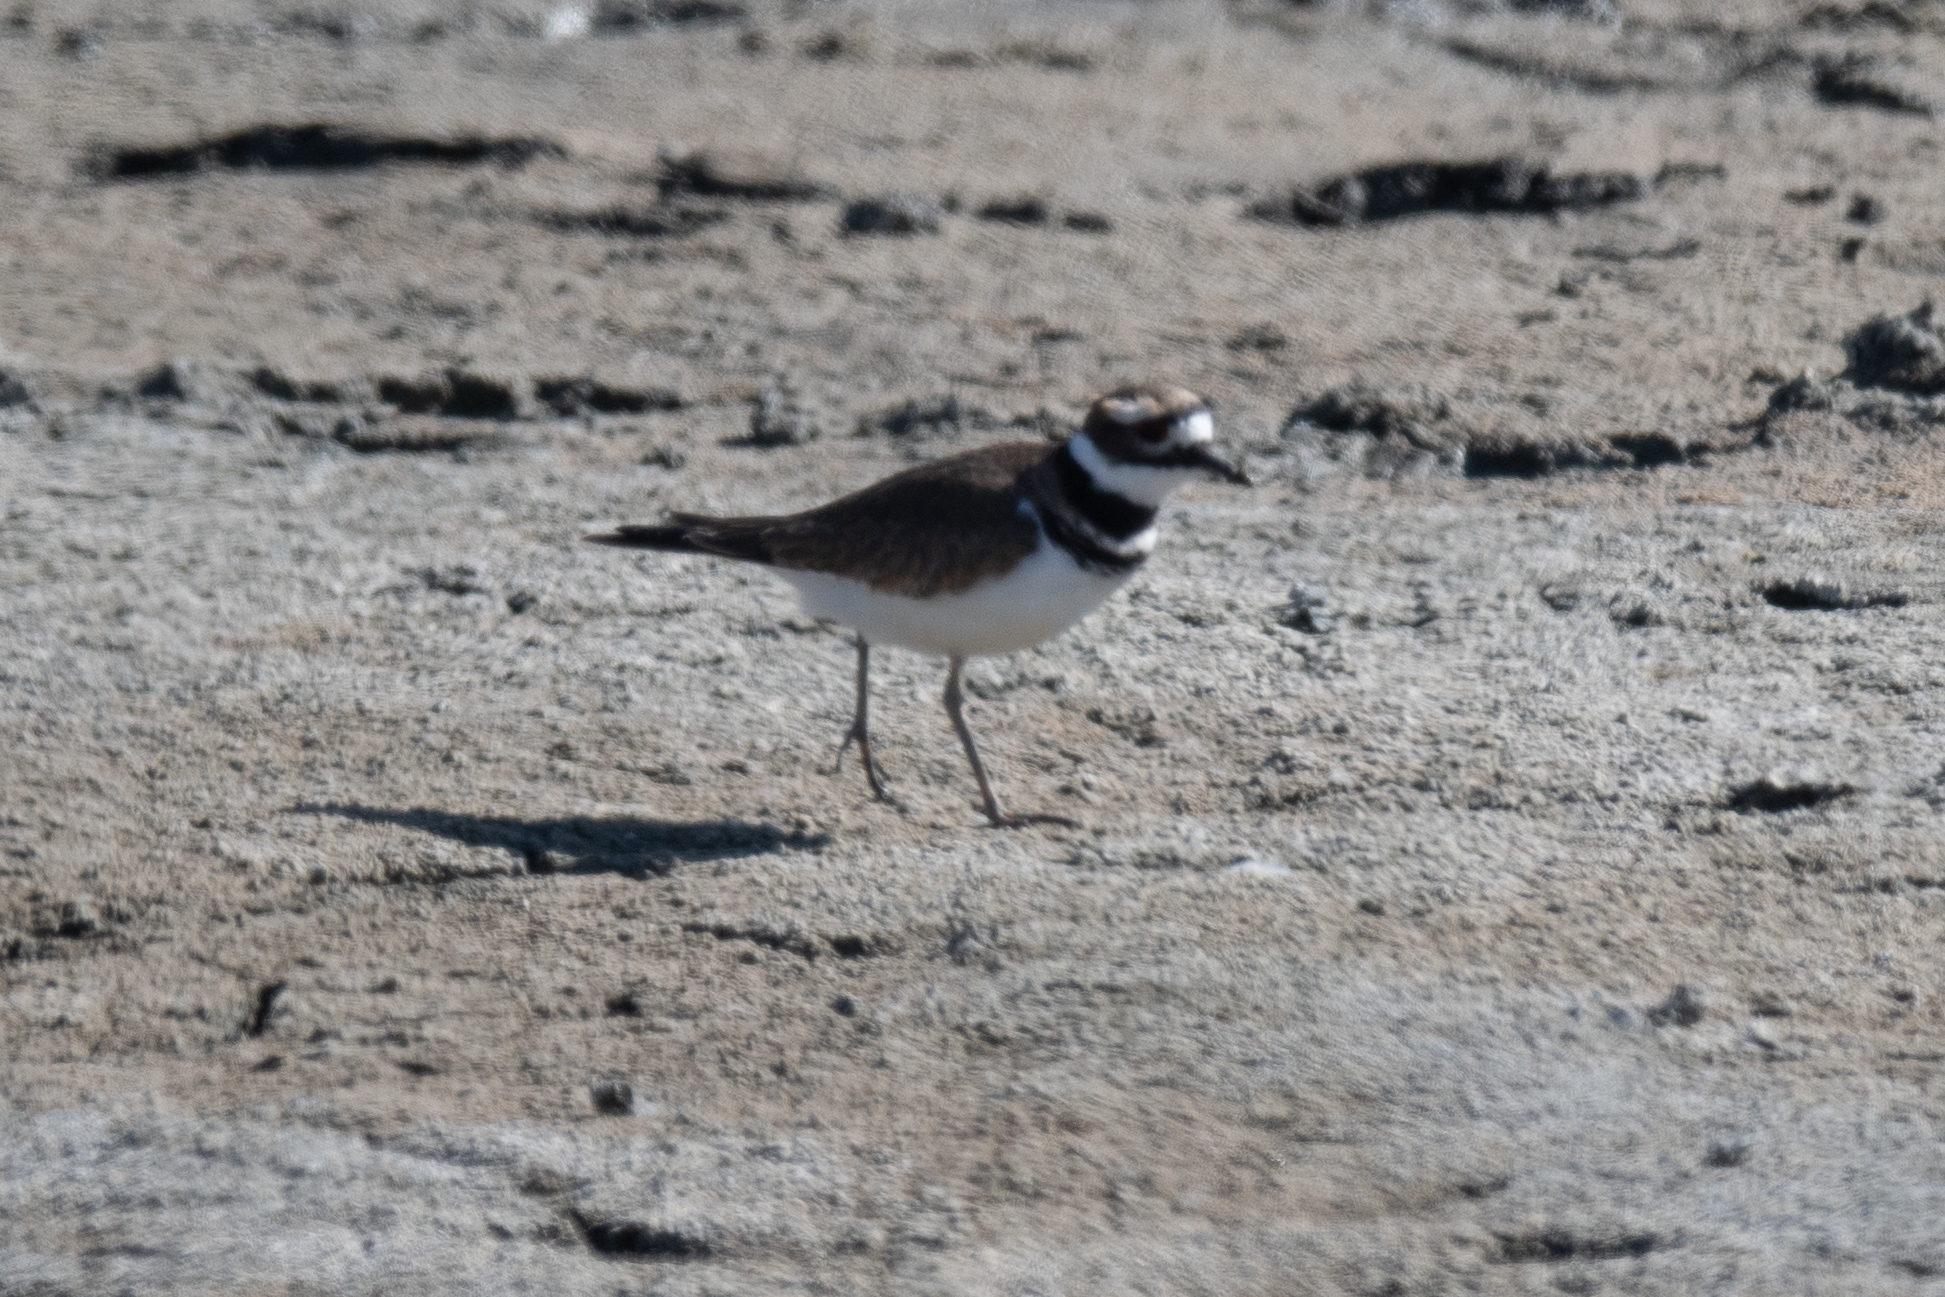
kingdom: Animalia
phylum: Chordata
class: Aves
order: Charadriiformes
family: Charadriidae
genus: Charadrius
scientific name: Charadrius vociferus
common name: Killdeer
